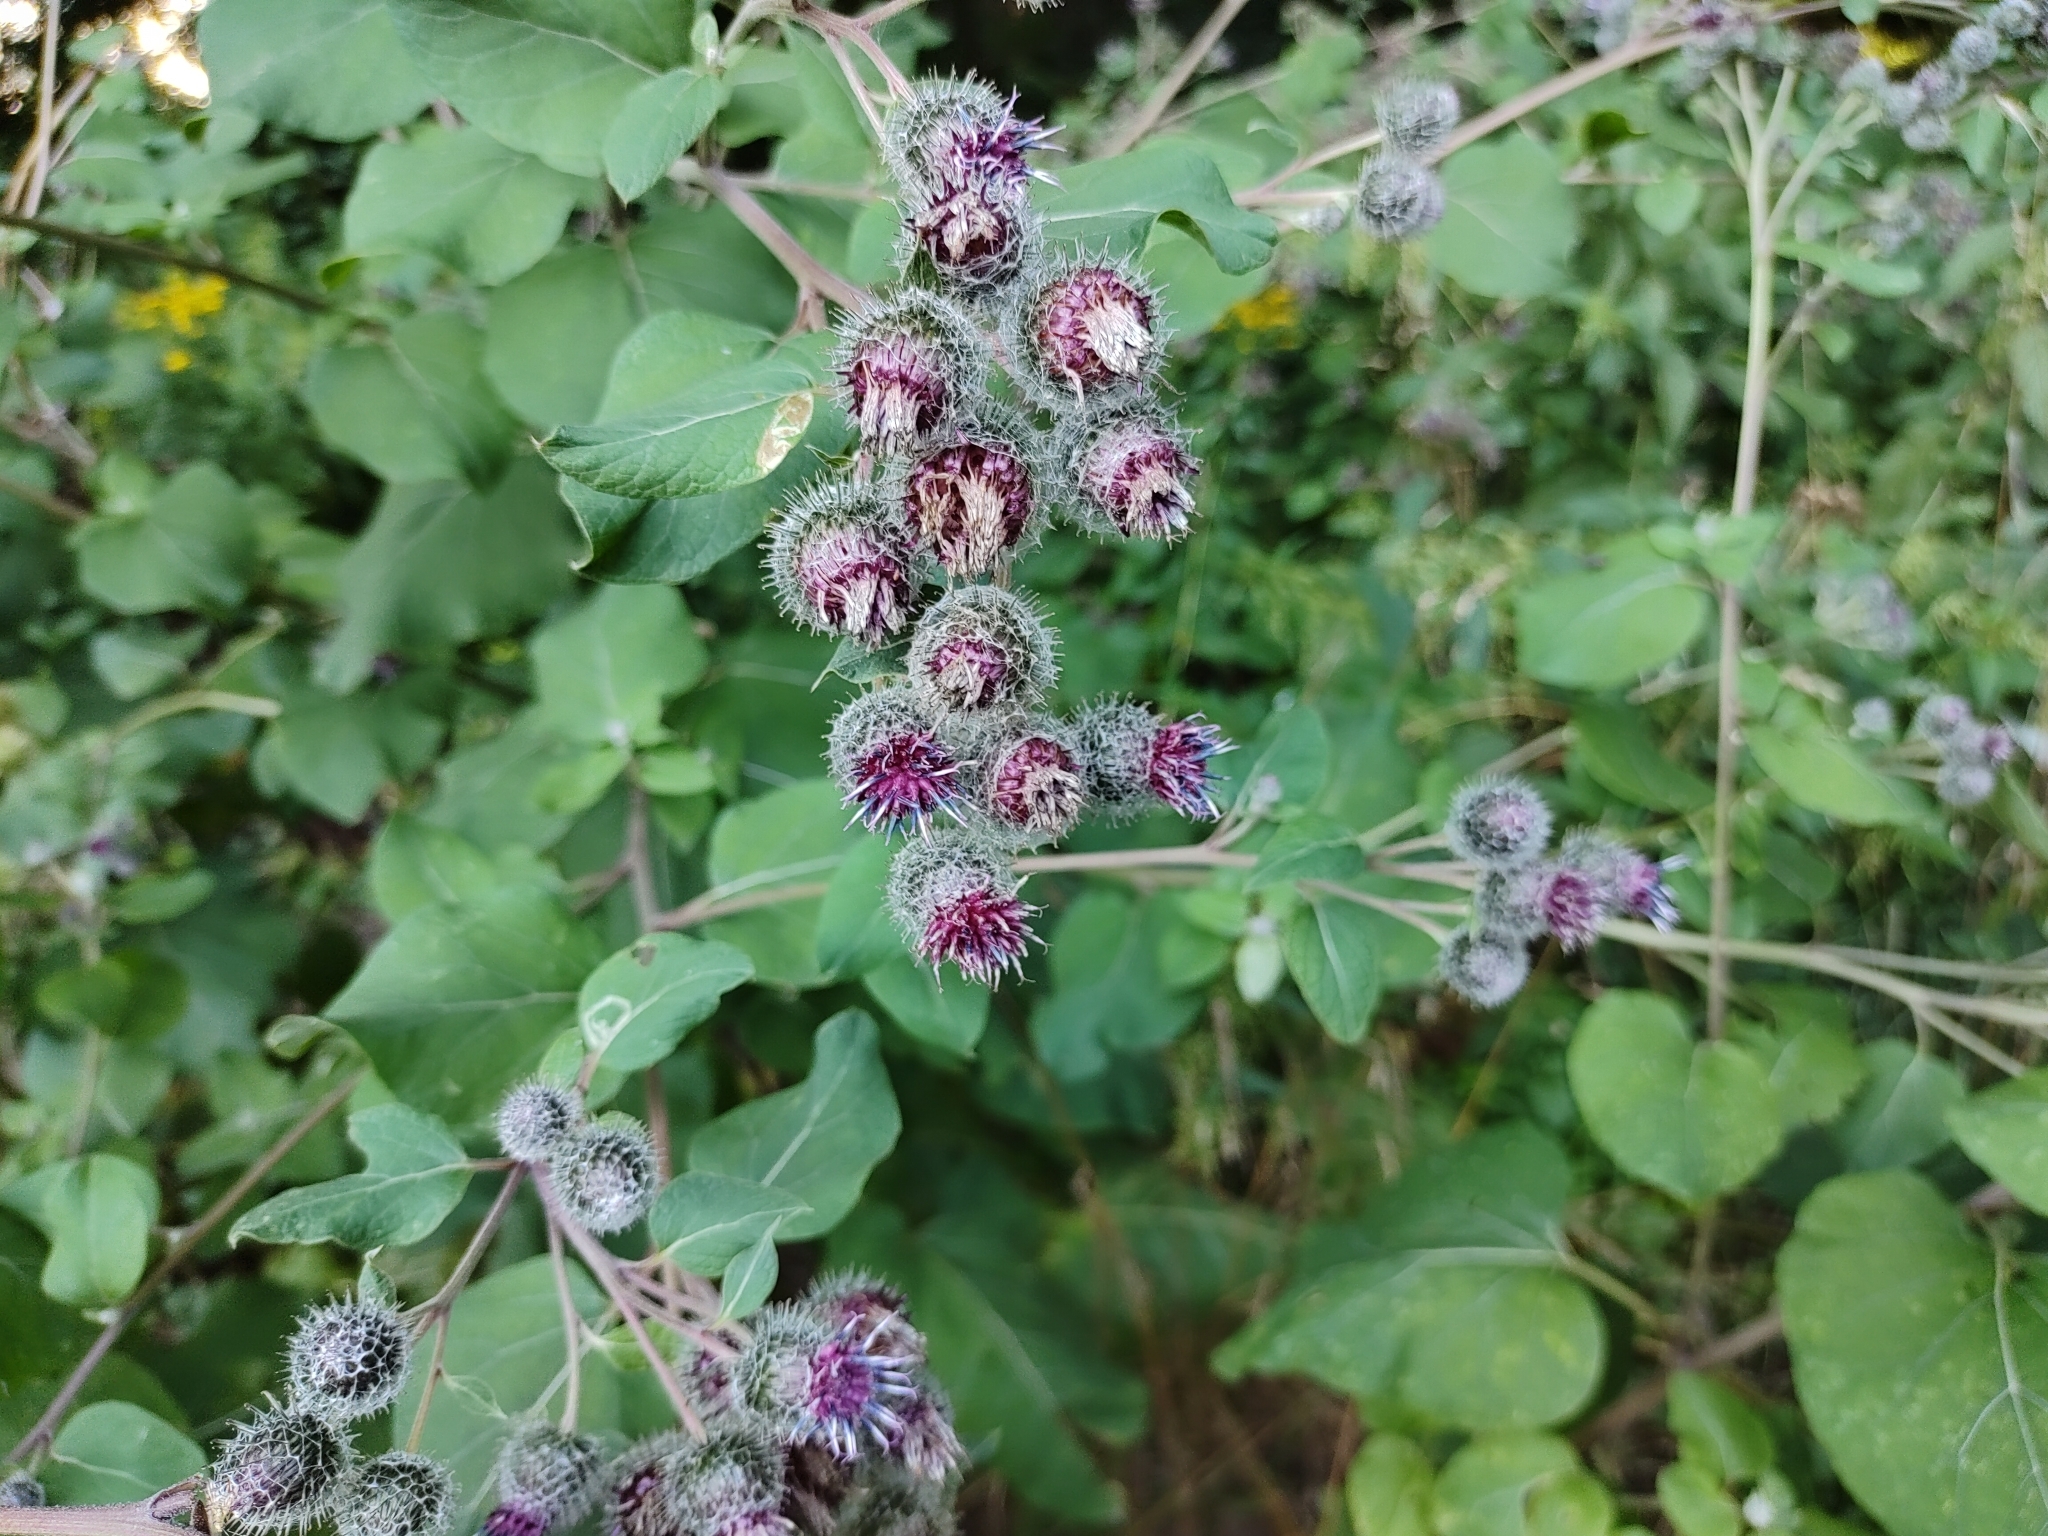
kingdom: Plantae
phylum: Tracheophyta
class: Magnoliopsida
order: Asterales
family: Asteraceae
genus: Arctium
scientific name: Arctium tomentosum
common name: Woolly burdock
